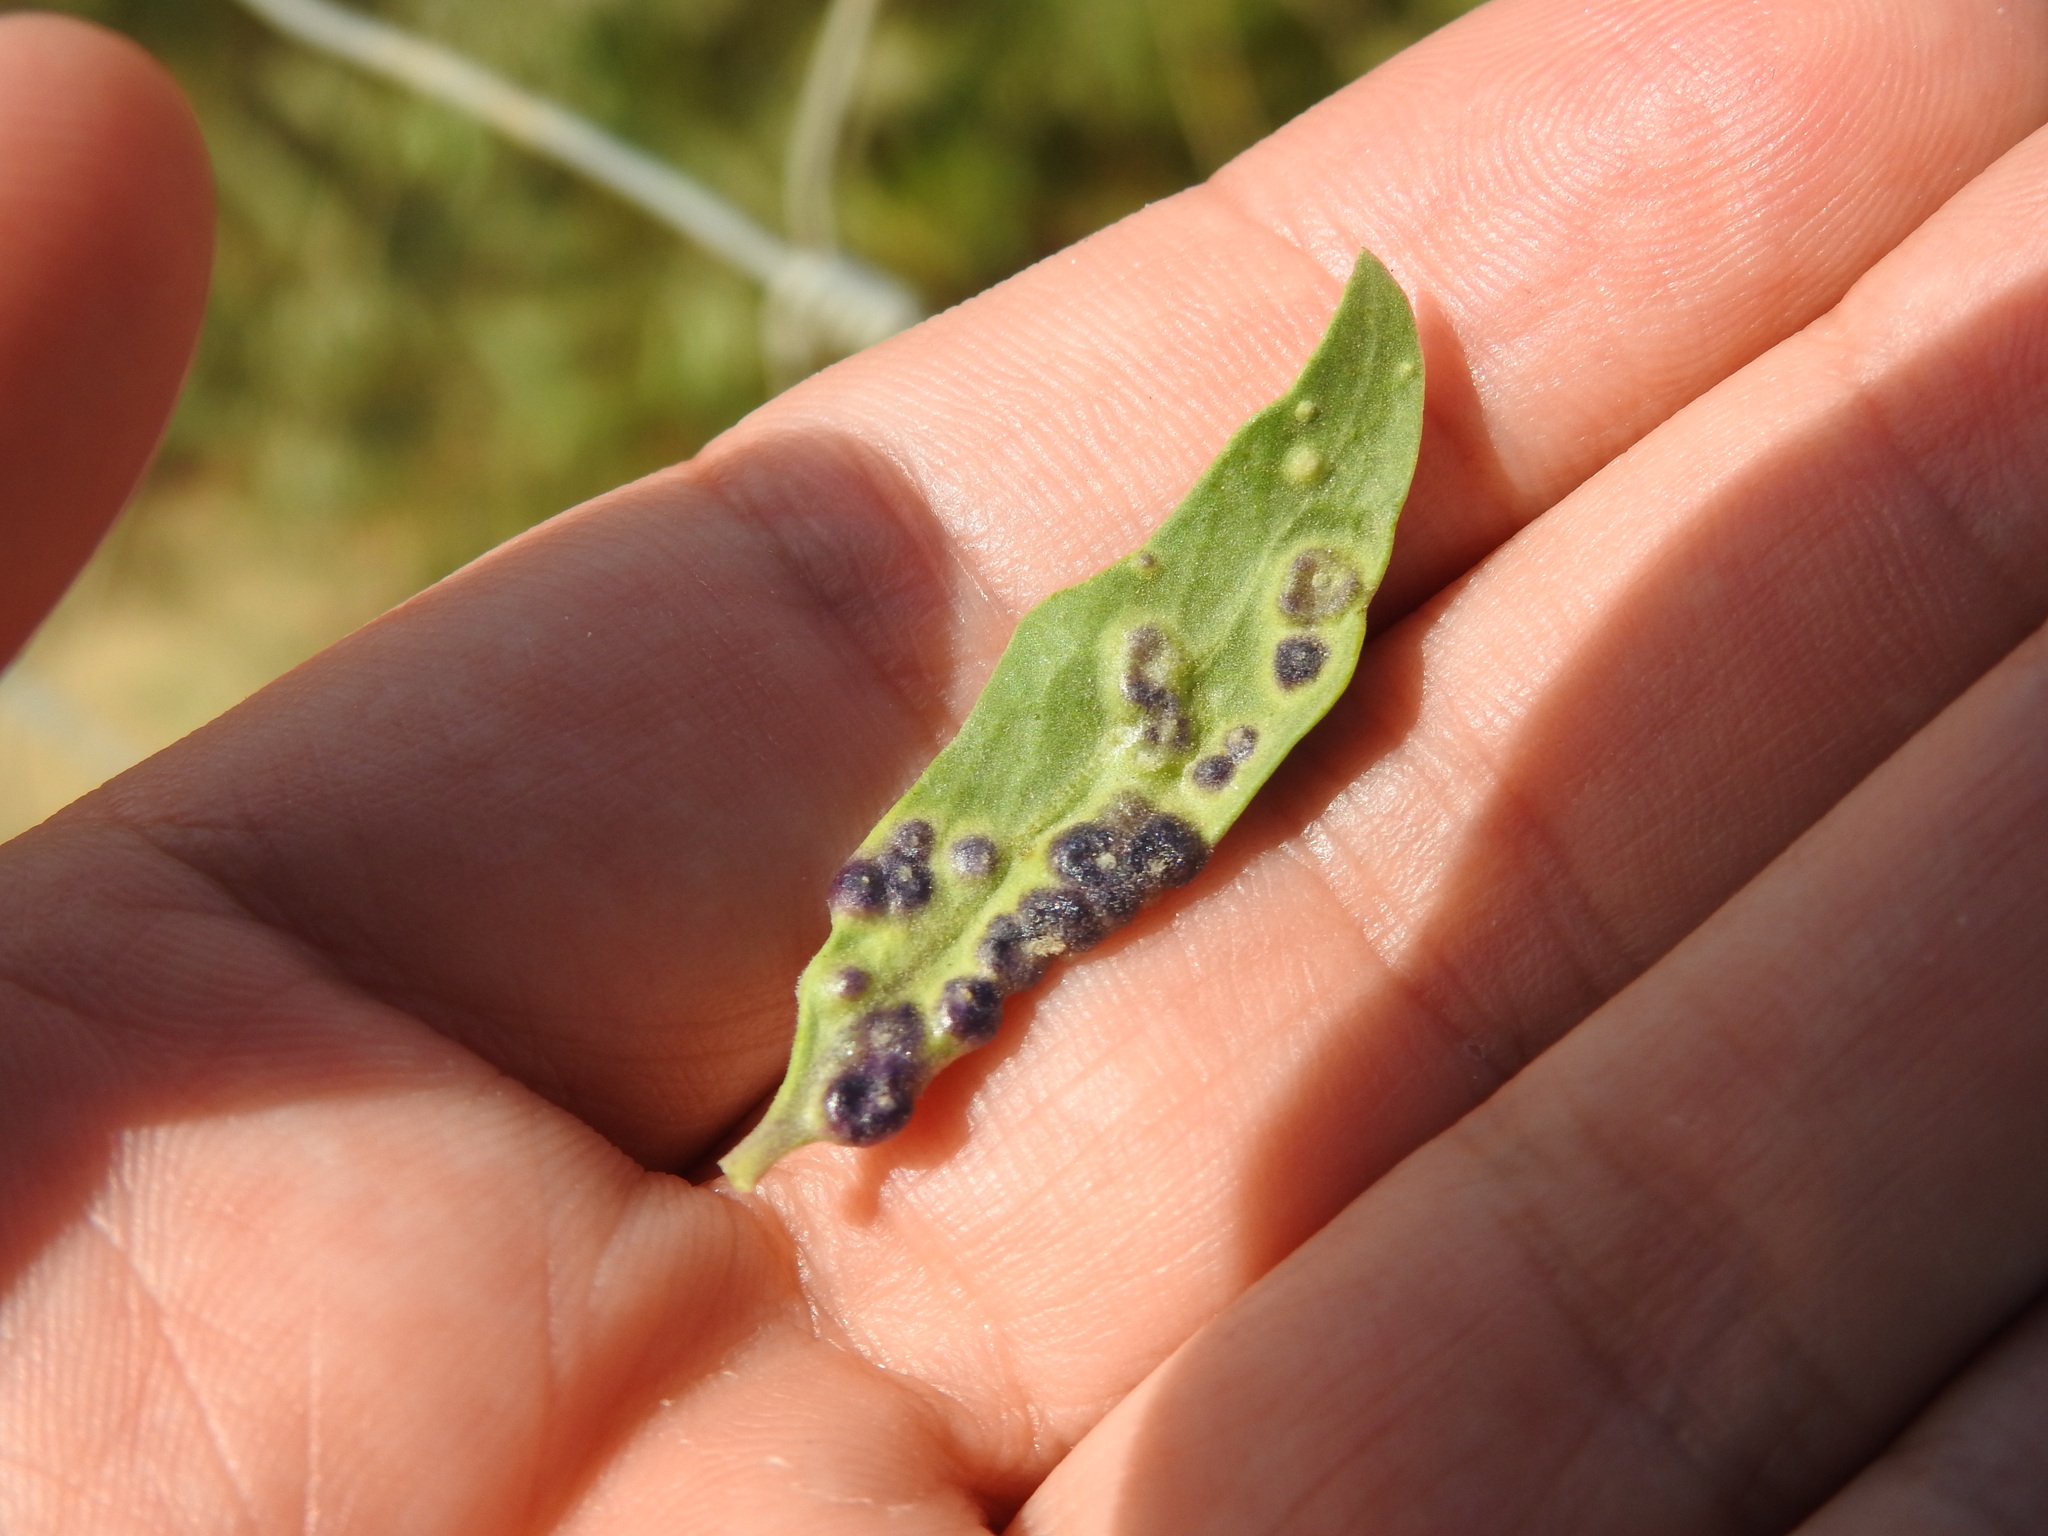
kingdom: Animalia
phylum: Arthropoda
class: Arachnida
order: Trombidiformes
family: Eriophyidae
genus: Aceria
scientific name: Aceria eucricotes
